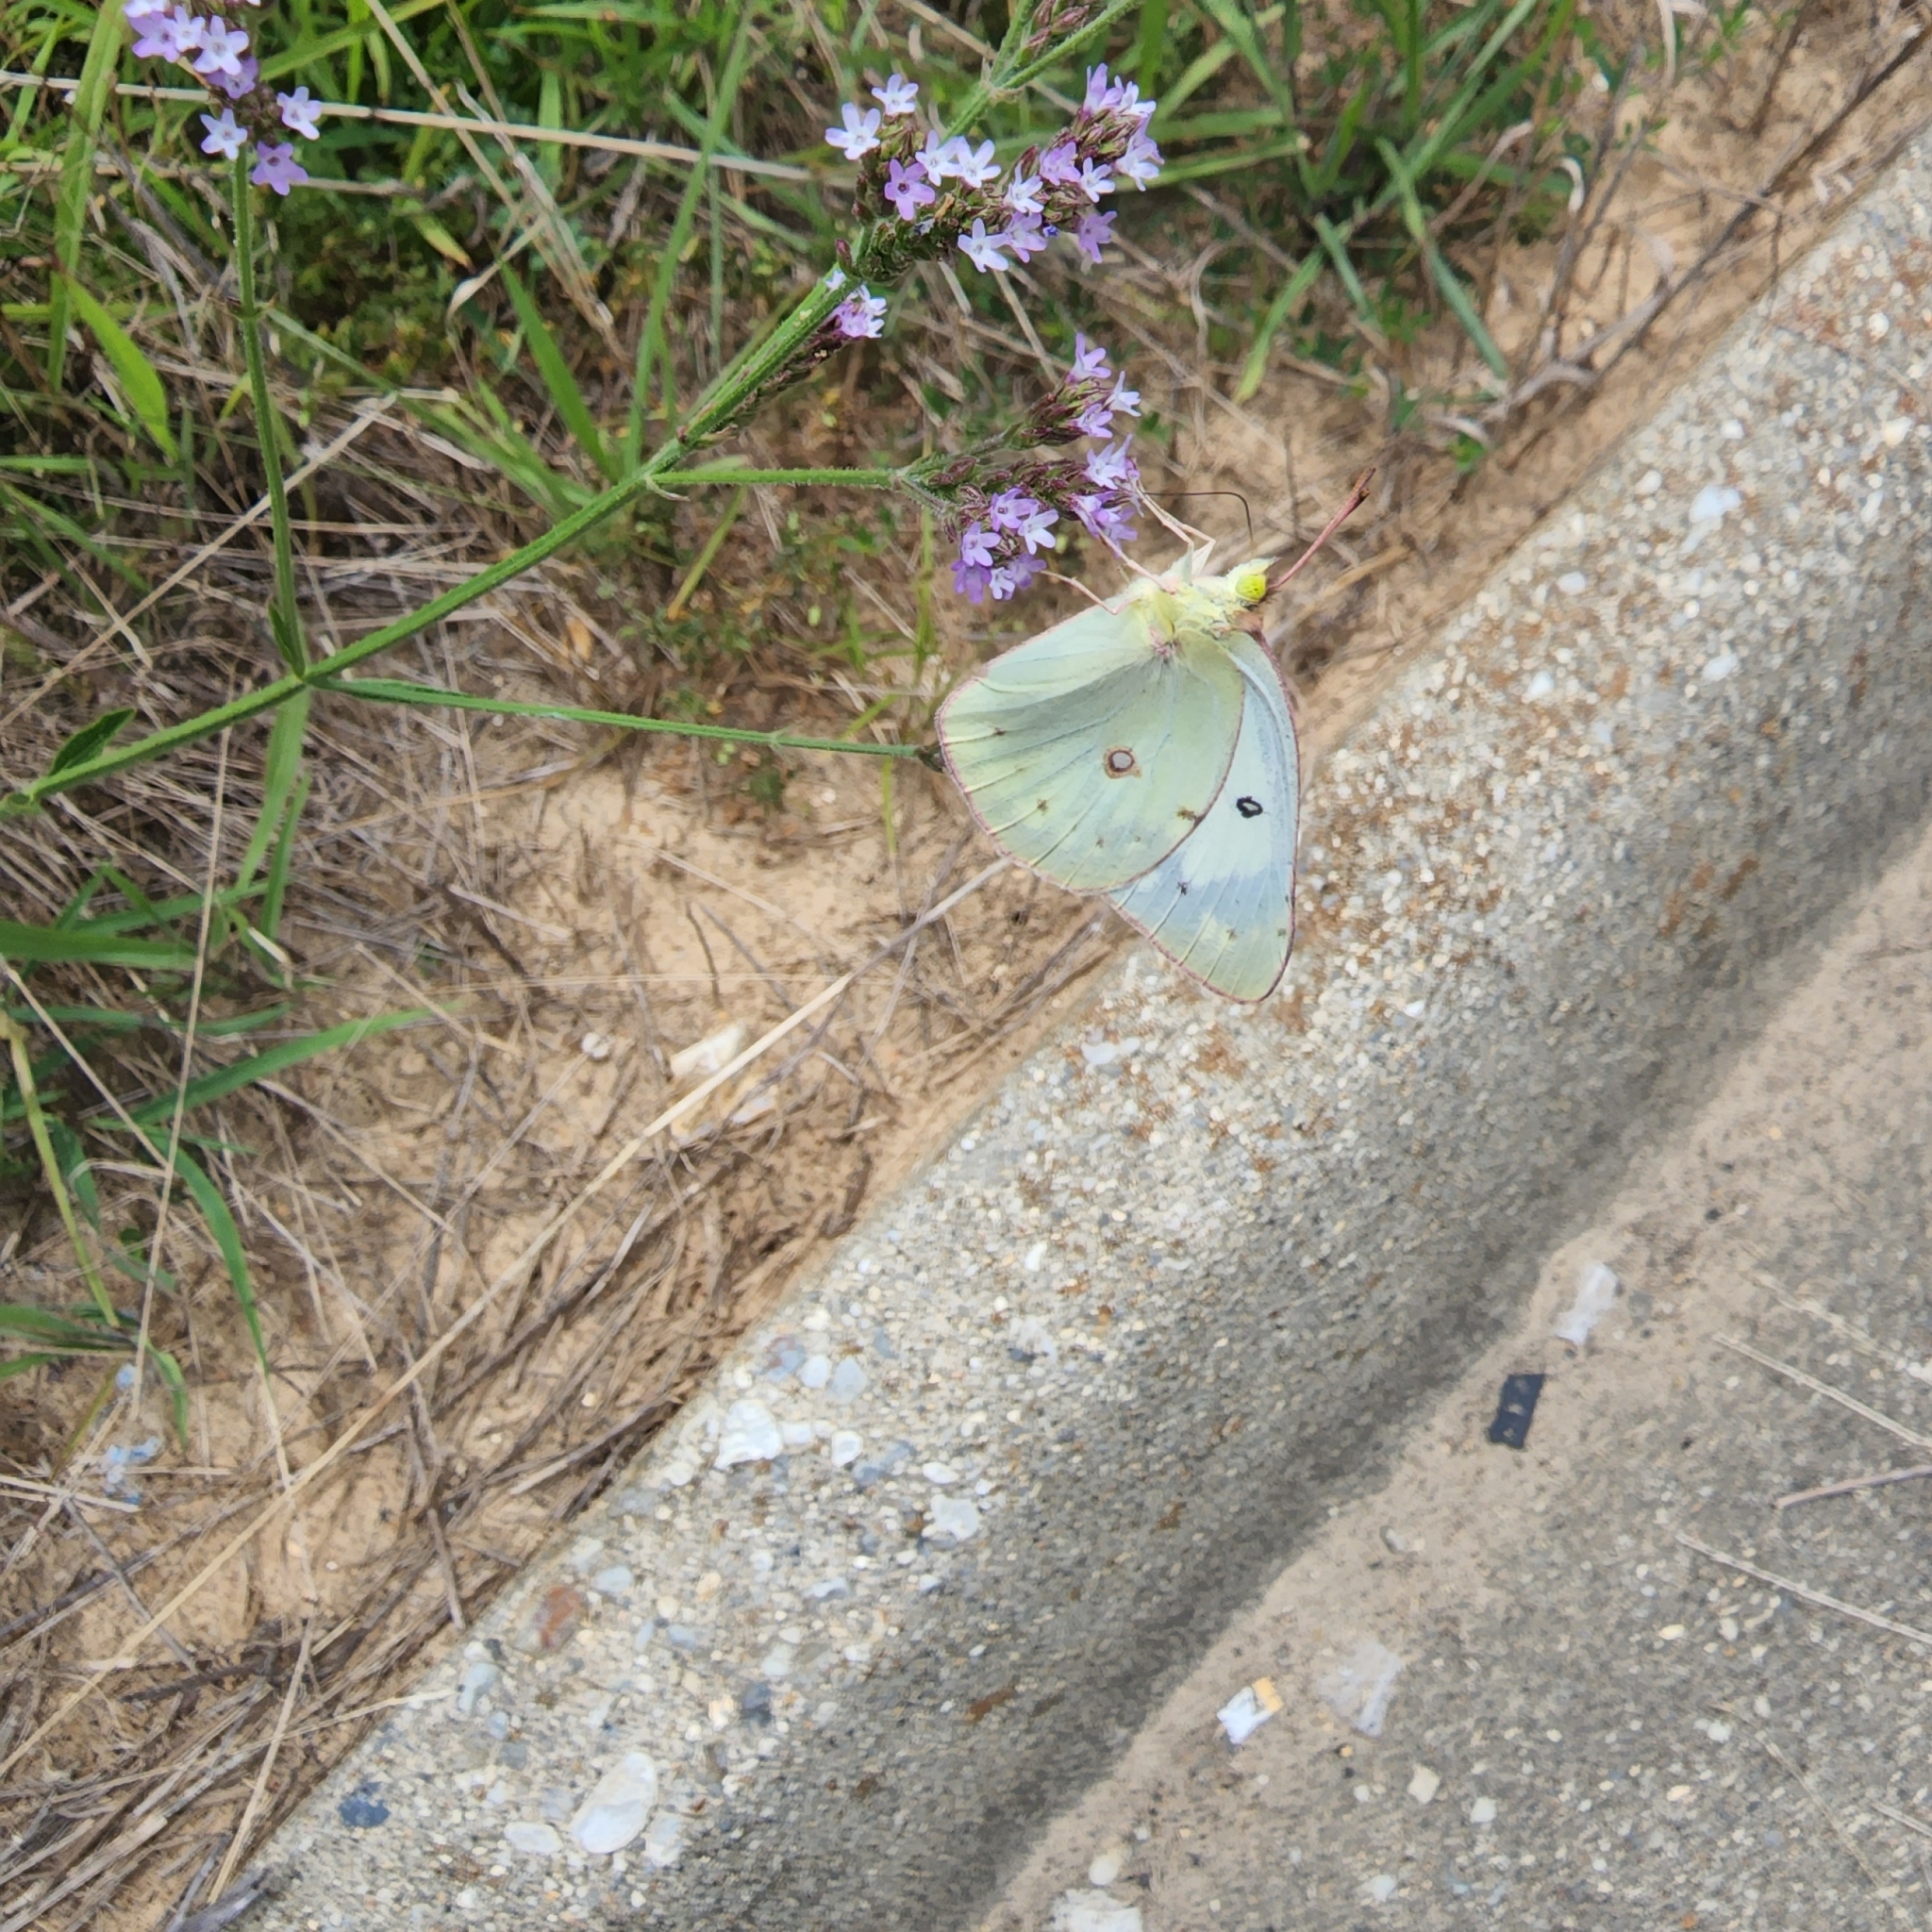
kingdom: Animalia
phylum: Arthropoda
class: Insecta
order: Lepidoptera
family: Pieridae
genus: Colias
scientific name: Colias eurytheme
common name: Alfalfa butterfly
